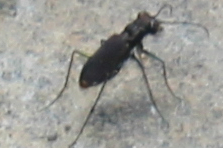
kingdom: Animalia
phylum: Arthropoda
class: Insecta
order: Coleoptera
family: Carabidae
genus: Cicindela
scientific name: Cicindela rufiventris
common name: Eastern red-bellied tiger beetle
